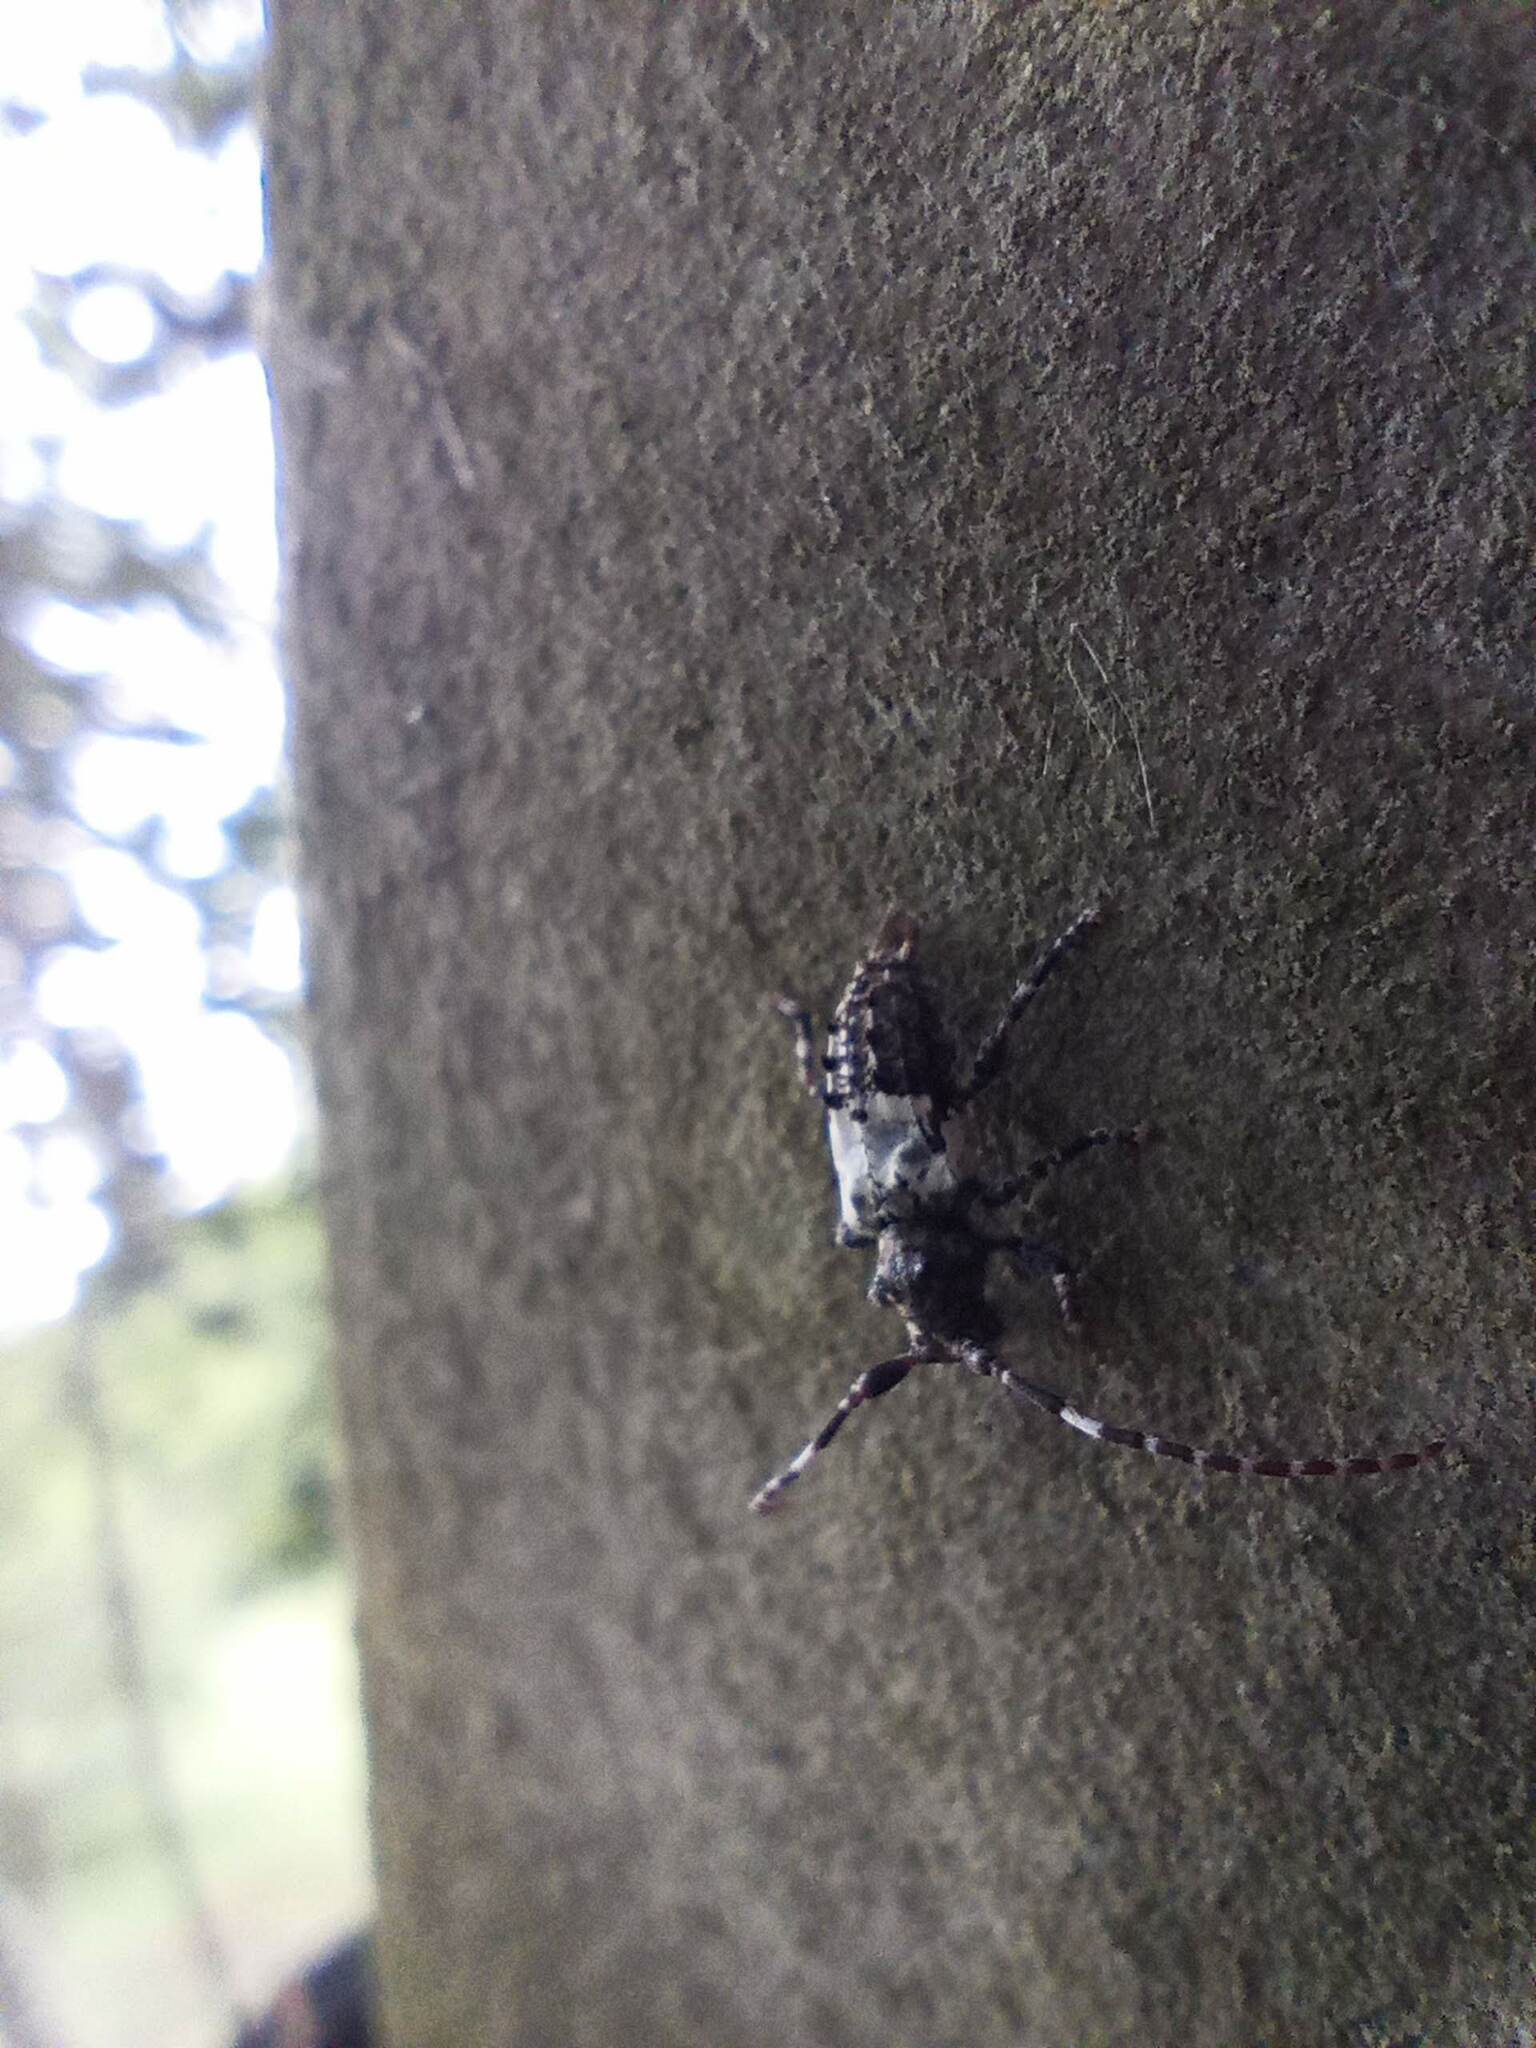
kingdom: Animalia
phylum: Arthropoda
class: Insecta
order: Coleoptera
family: Cerambycidae
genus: Pogonocherus
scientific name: Pogonocherus hispidulus
